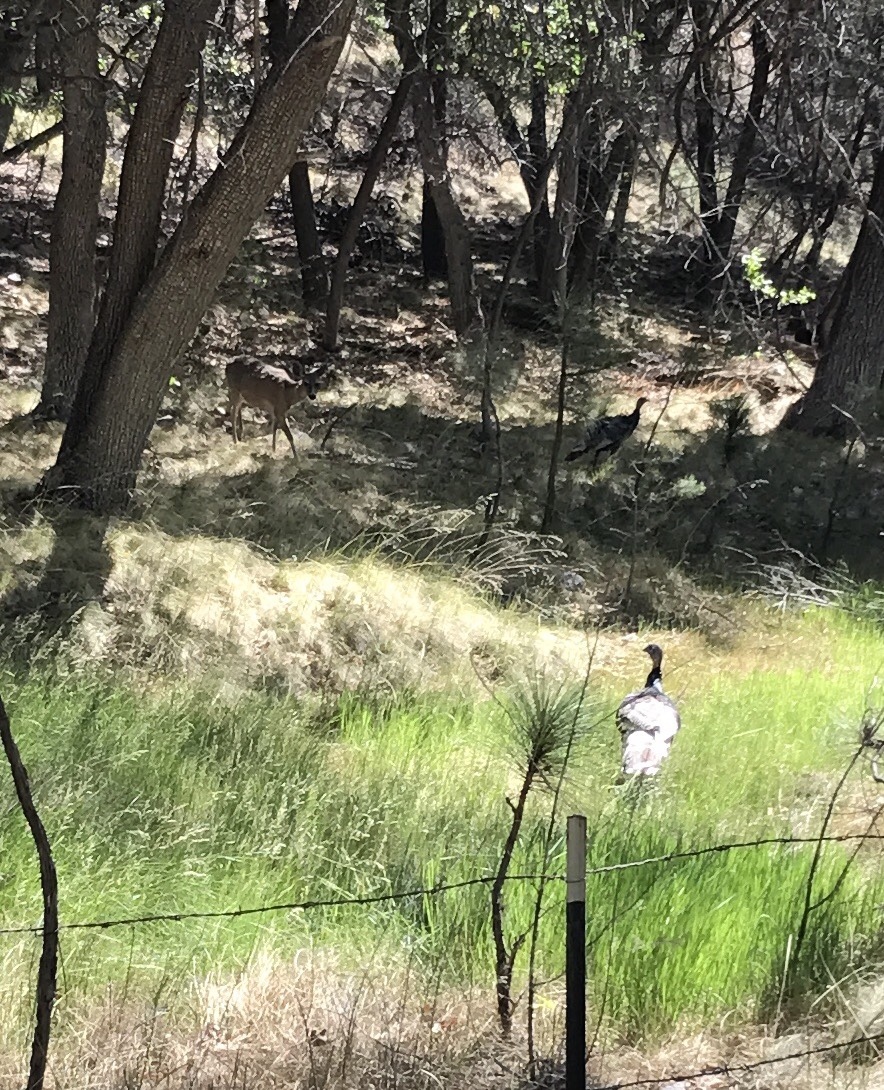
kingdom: Animalia
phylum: Chordata
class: Aves
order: Galliformes
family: Phasianidae
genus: Meleagris
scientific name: Meleagris gallopavo
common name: Wild turkey
